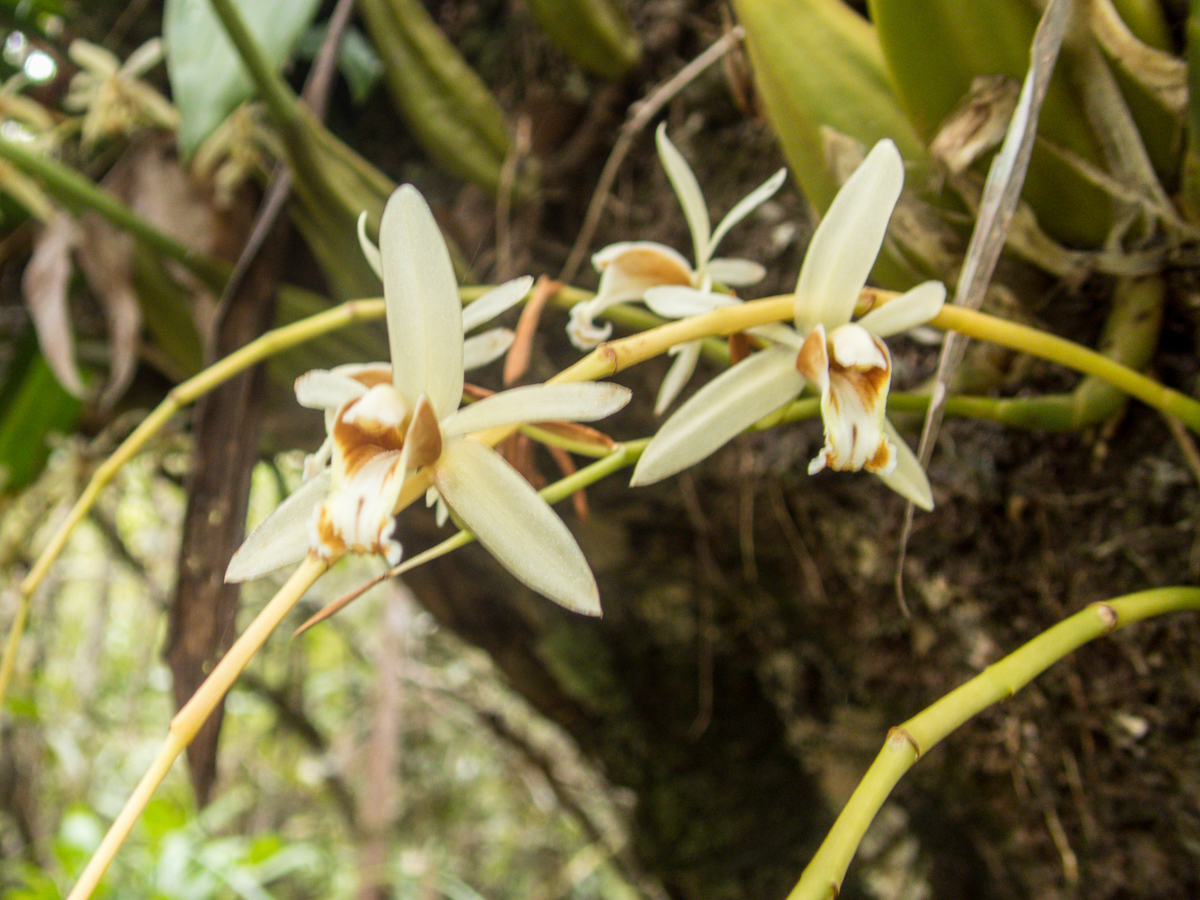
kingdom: Plantae
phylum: Tracheophyta
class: Liliopsida
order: Asparagales
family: Orchidaceae
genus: Coelogyne
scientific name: Coelogyne trinervis
